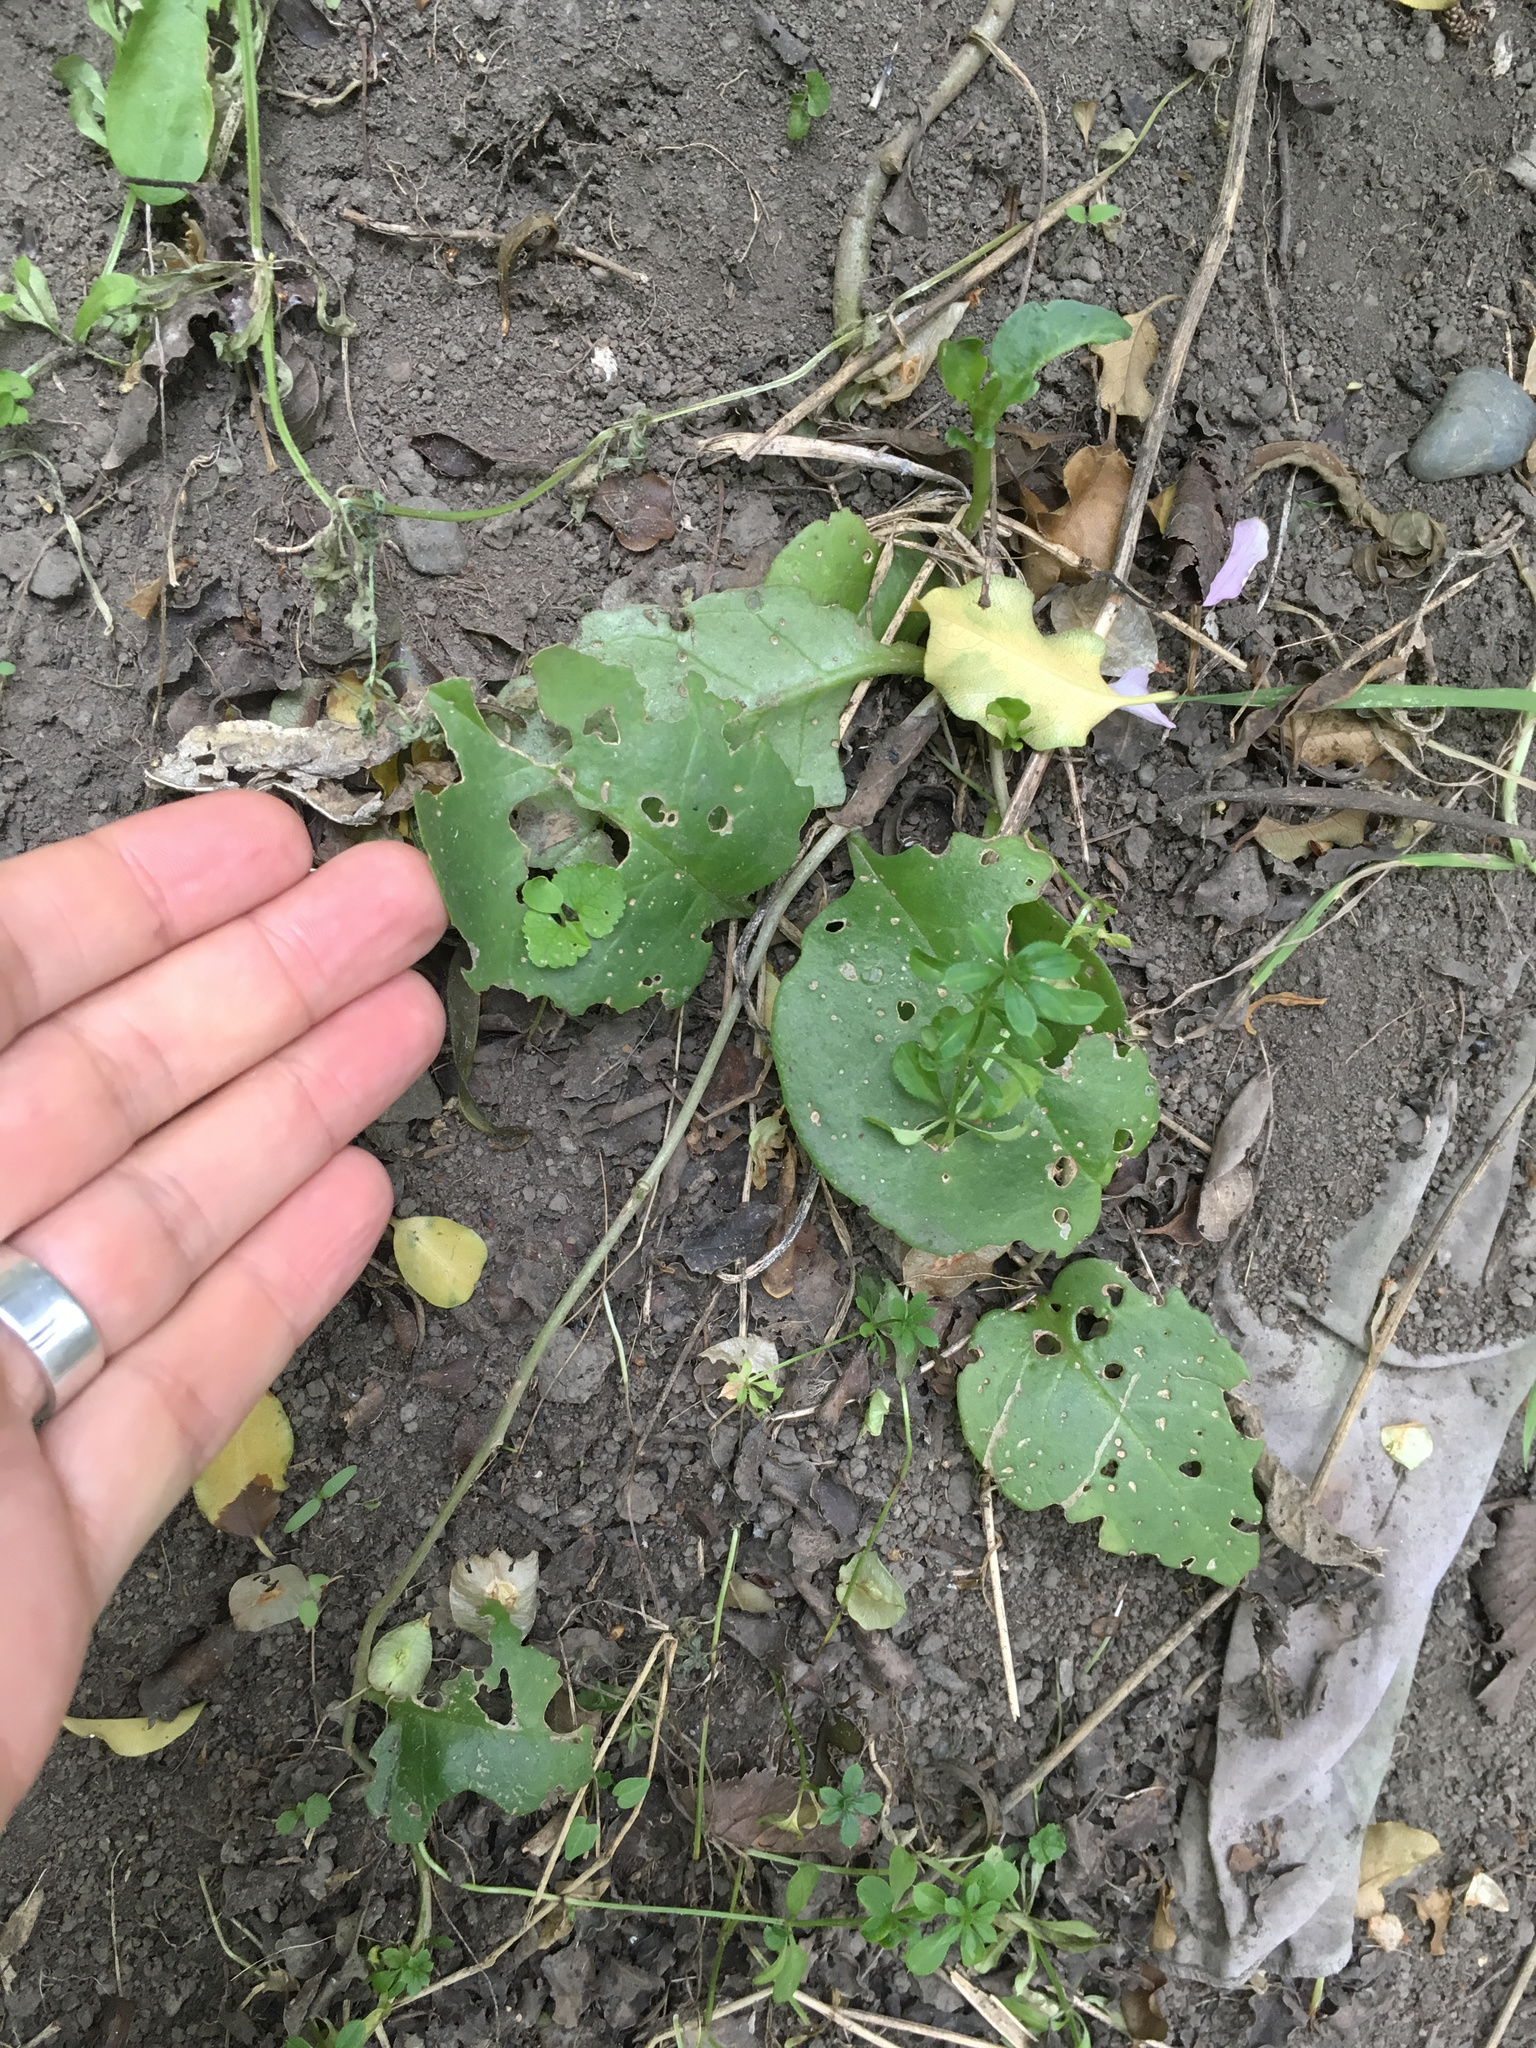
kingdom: Plantae
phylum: Tracheophyta
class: Magnoliopsida
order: Caryophyllales
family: Basellaceae
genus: Anredera
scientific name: Anredera cordifolia
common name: Heartleaf madeiravine
